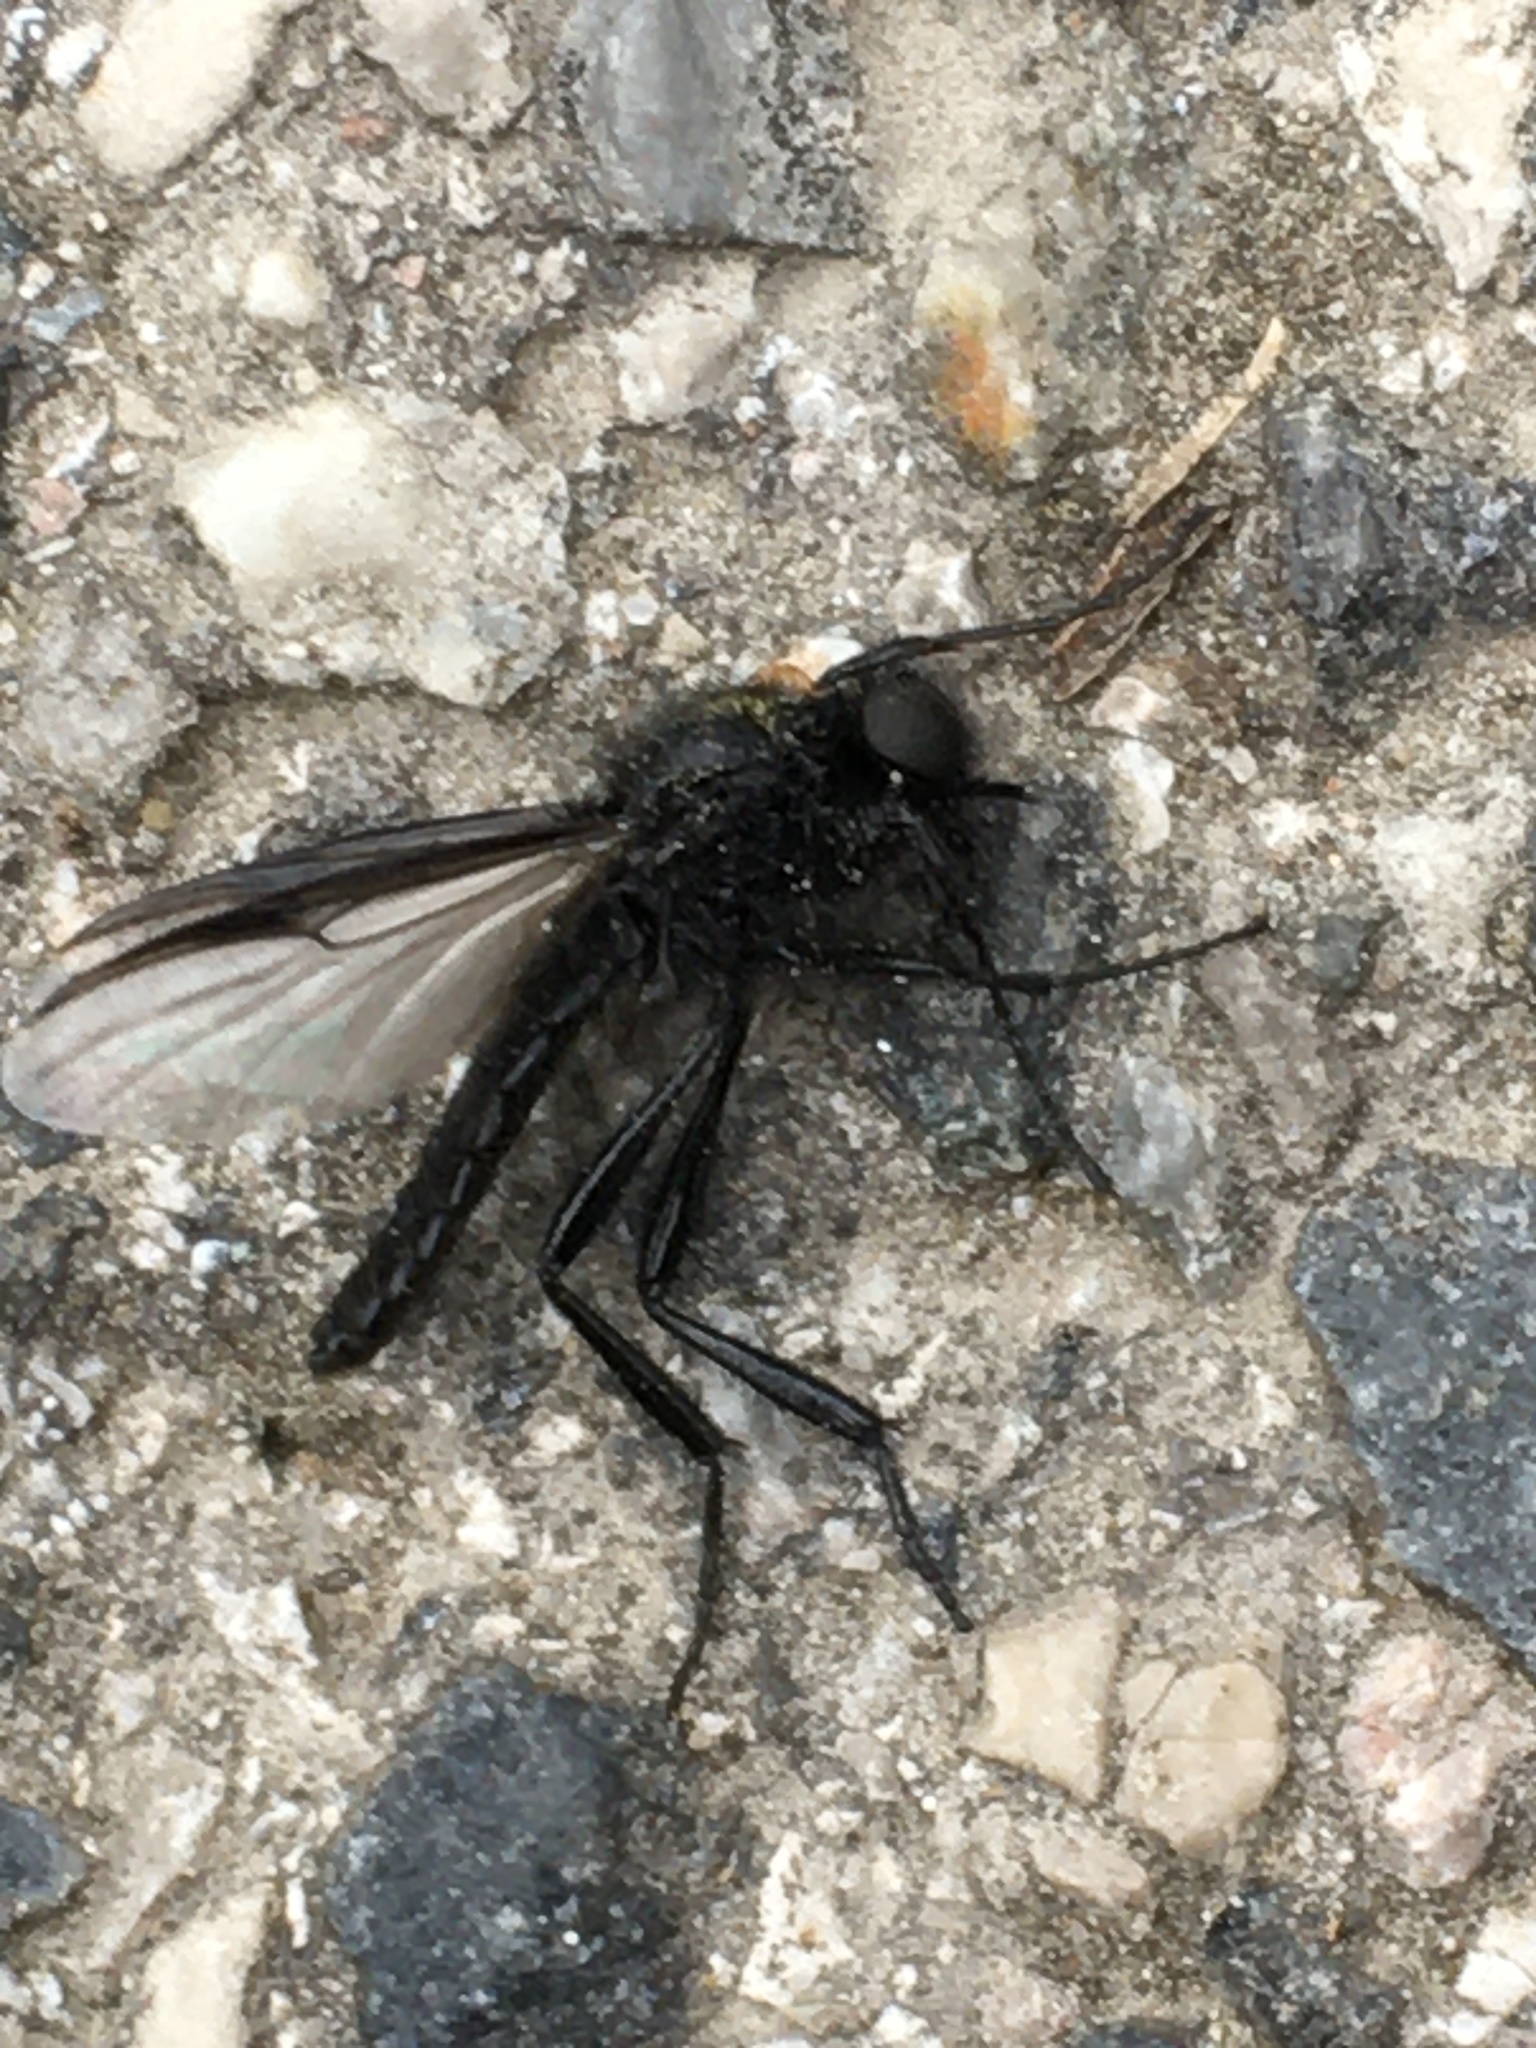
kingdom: Animalia
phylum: Arthropoda
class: Insecta
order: Diptera
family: Bibionidae
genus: Bibio
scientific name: Bibio marci
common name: St marks fly
